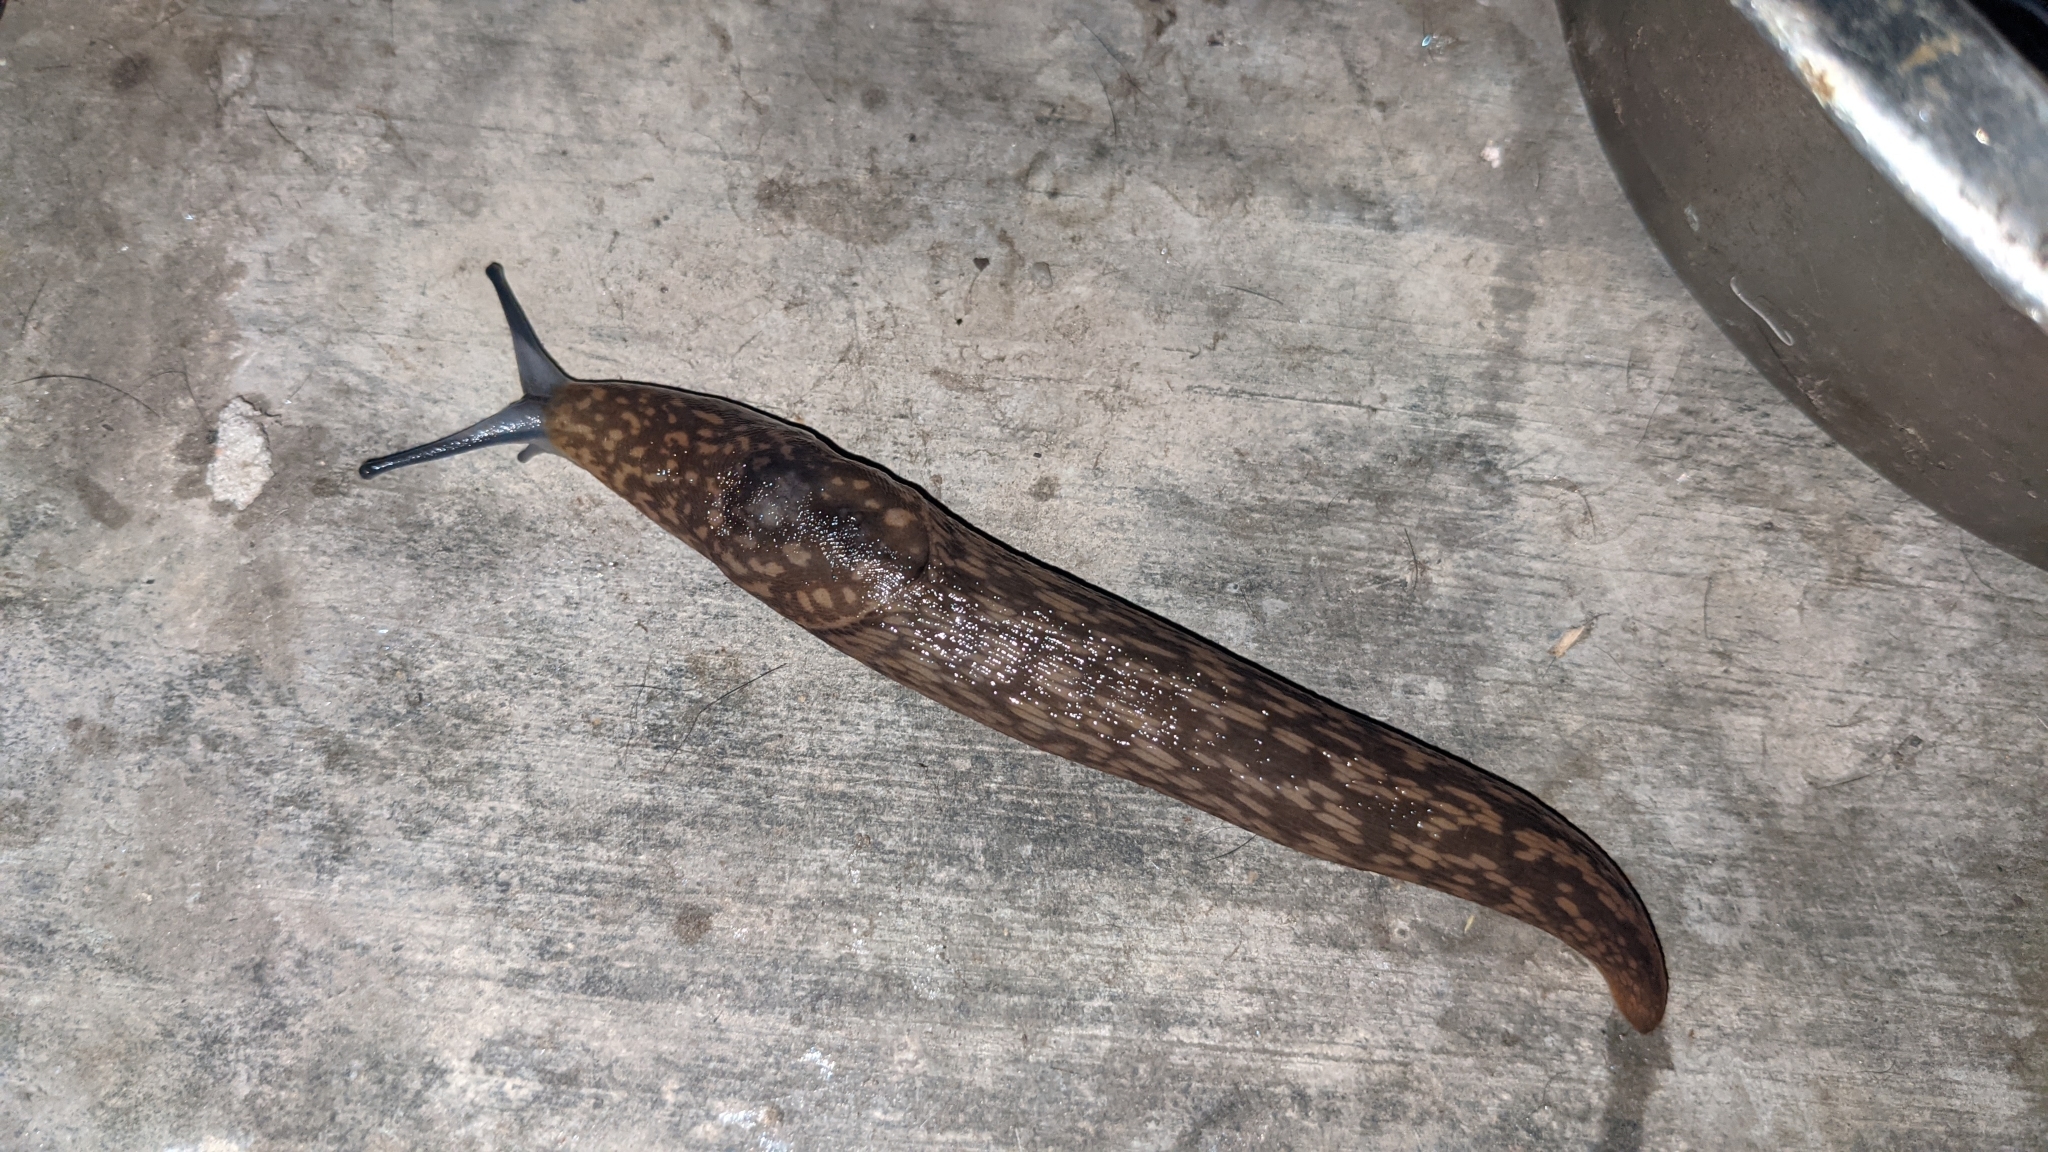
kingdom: Animalia
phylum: Mollusca
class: Gastropoda
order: Stylommatophora
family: Limacidae
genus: Limacus
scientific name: Limacus flavus
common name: Yellow gardenslug
